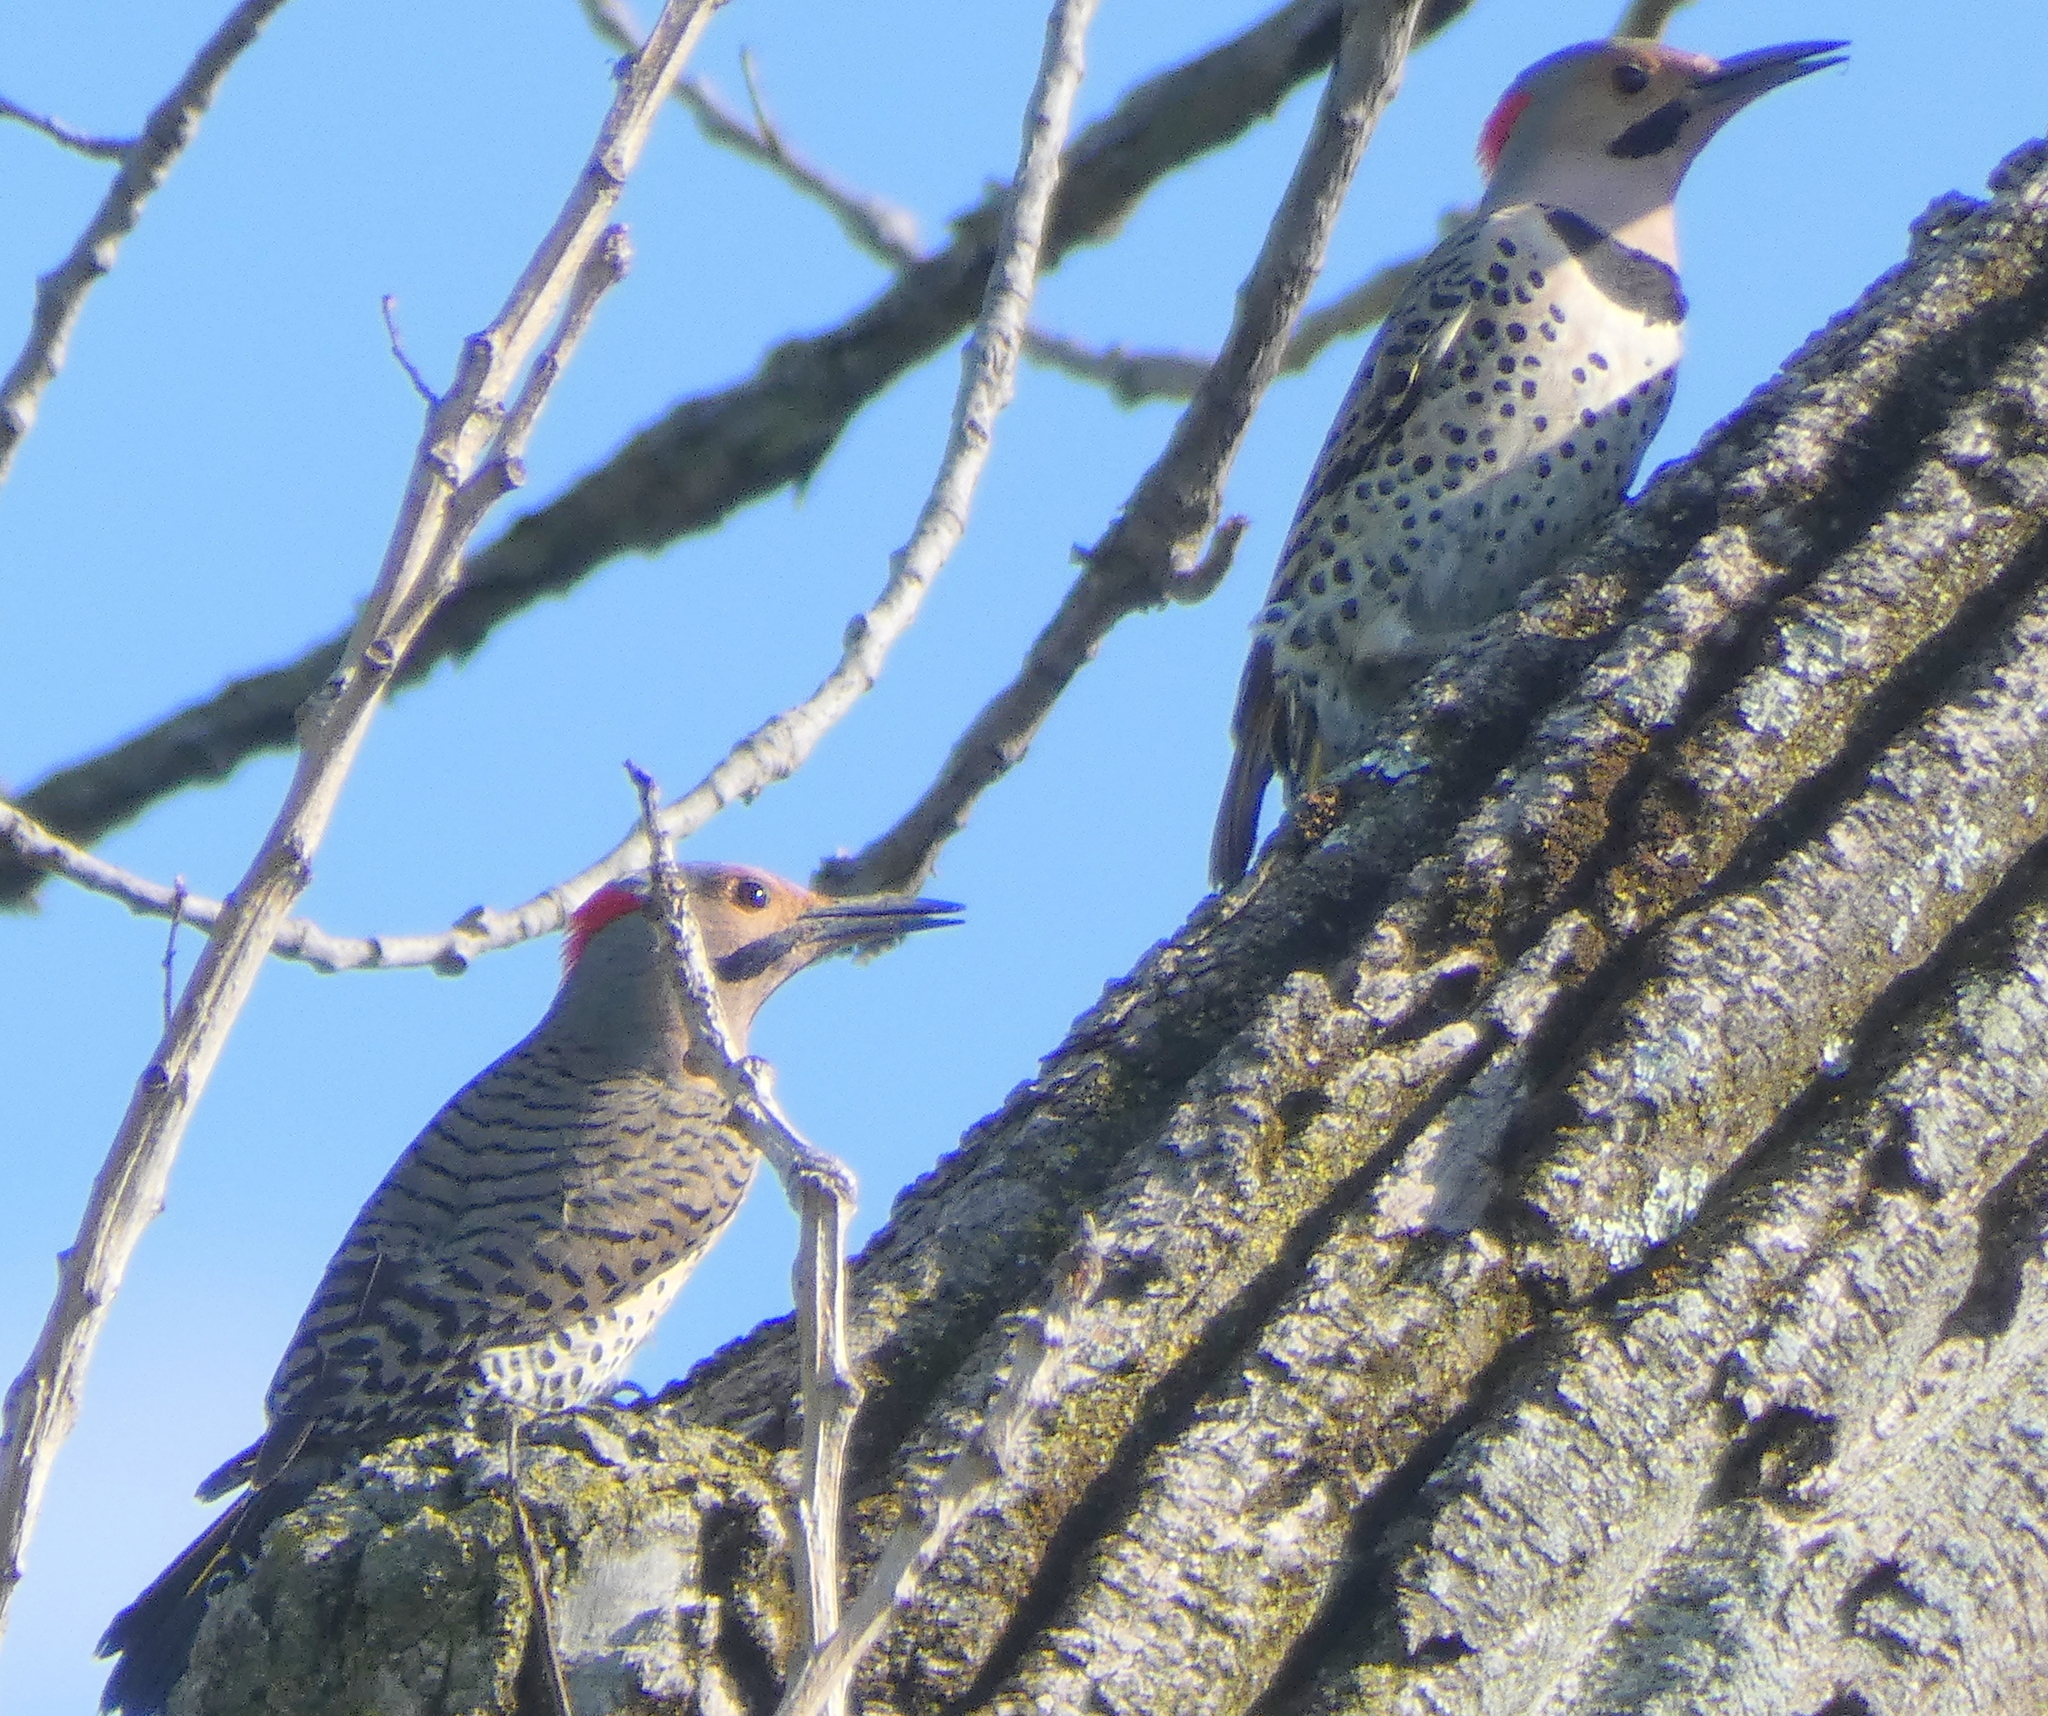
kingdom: Animalia
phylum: Chordata
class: Aves
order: Piciformes
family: Picidae
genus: Colaptes
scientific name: Colaptes auratus
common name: Northern flicker
